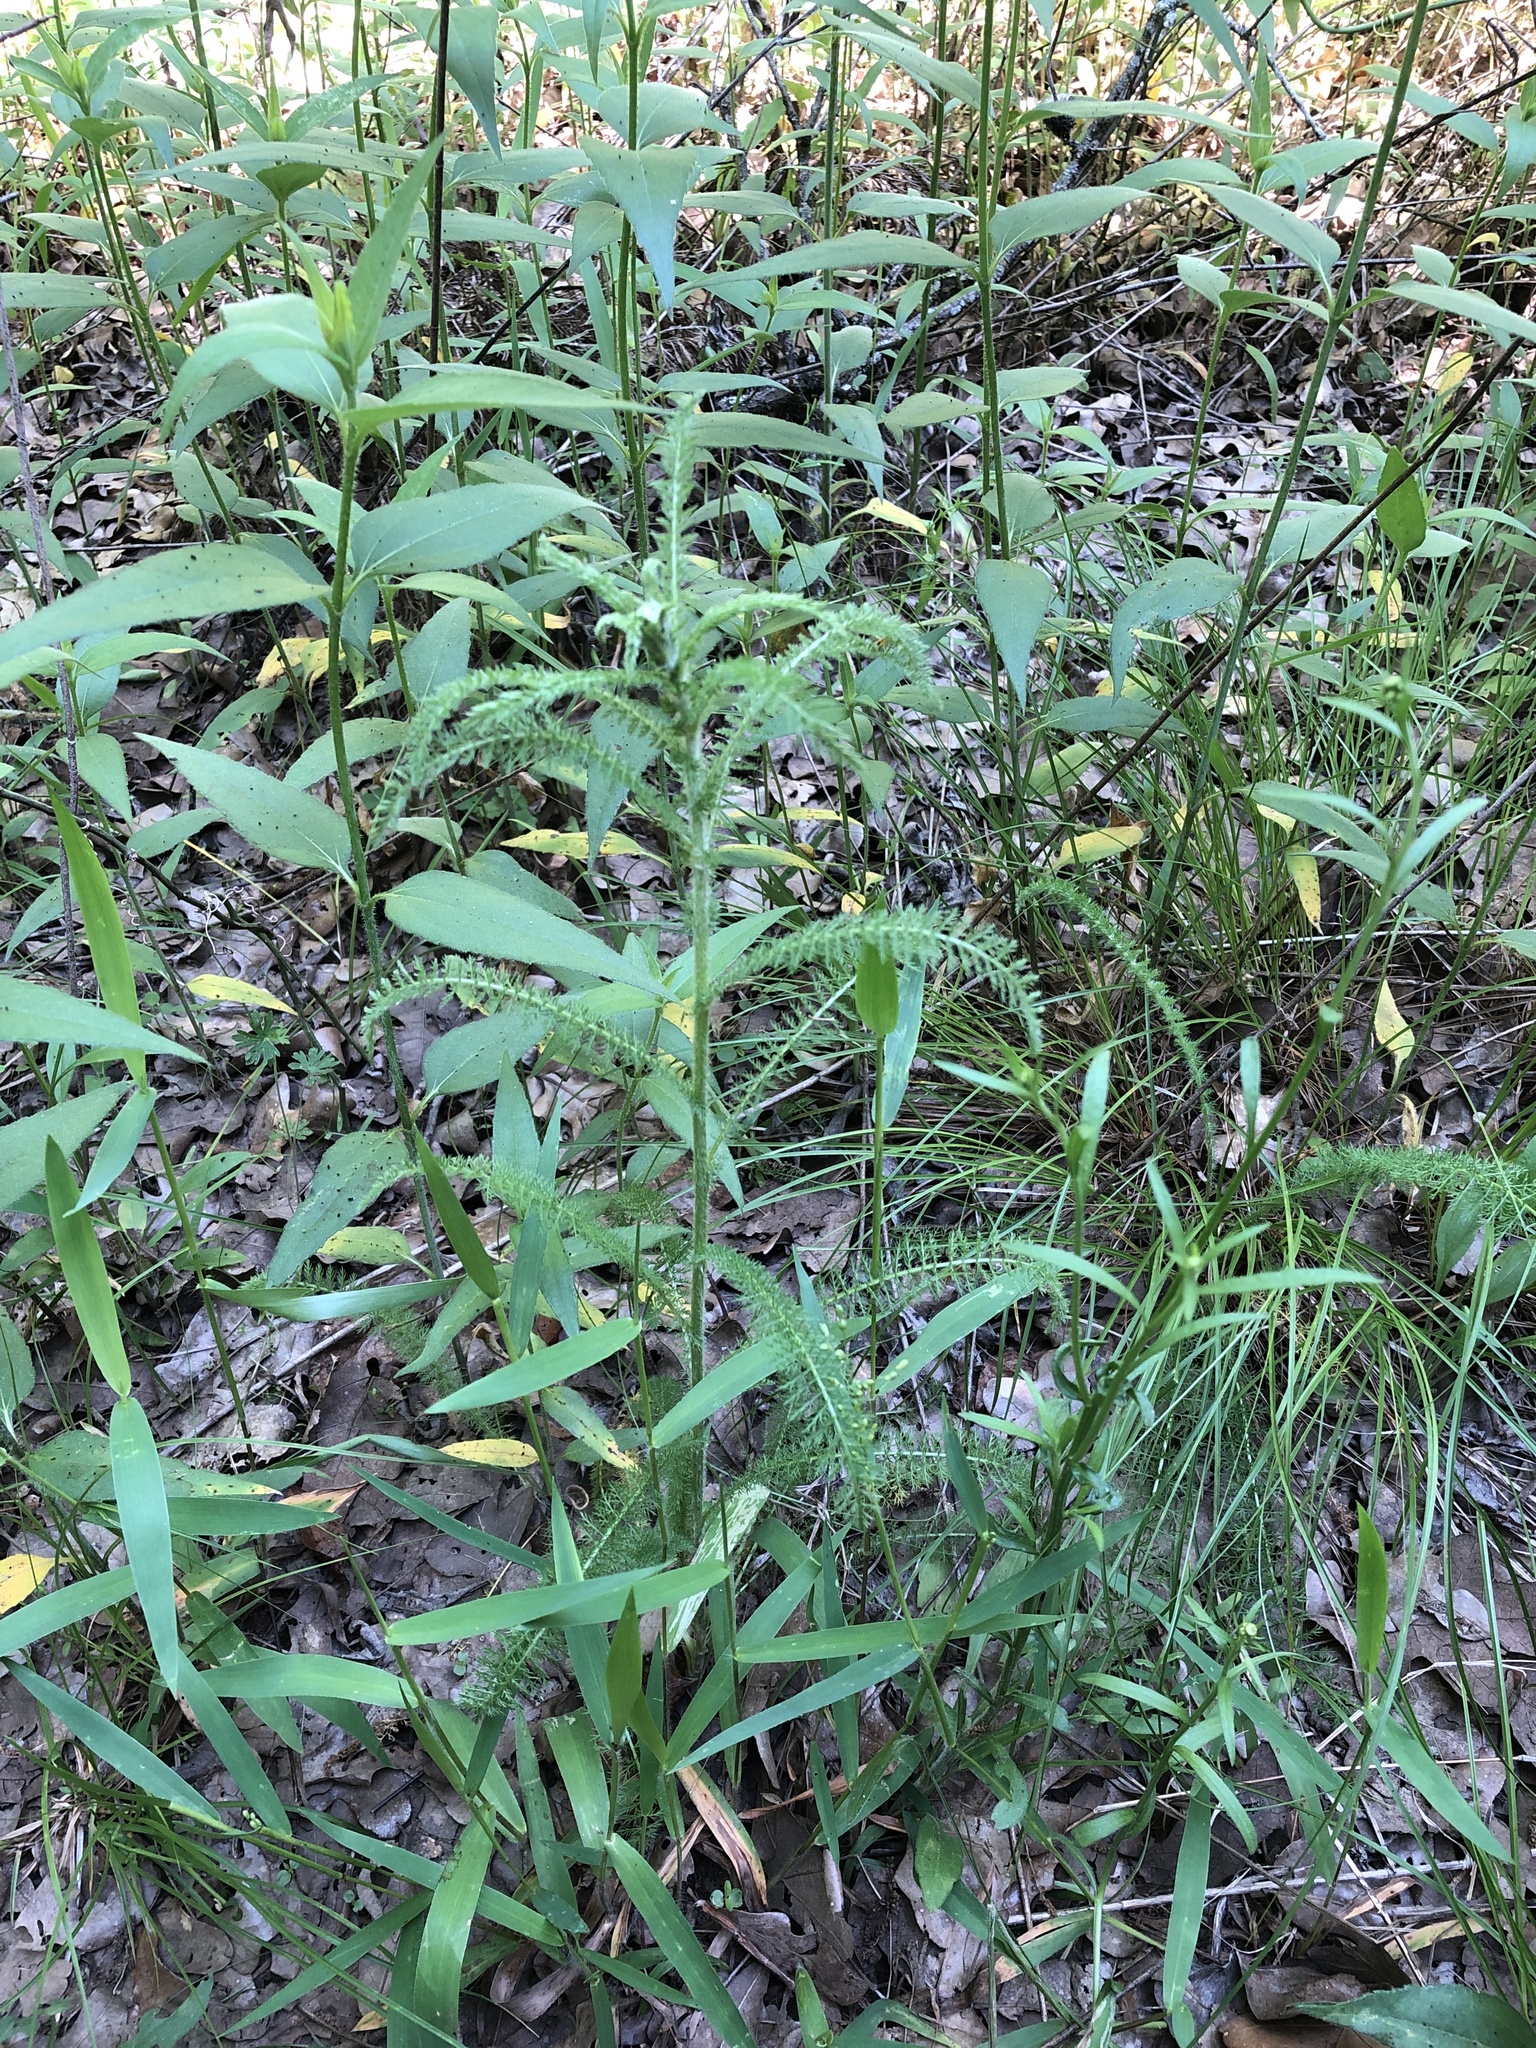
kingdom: Plantae
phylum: Tracheophyta
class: Magnoliopsida
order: Asterales
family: Asteraceae
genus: Achillea
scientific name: Achillea millefolium
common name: Yarrow
